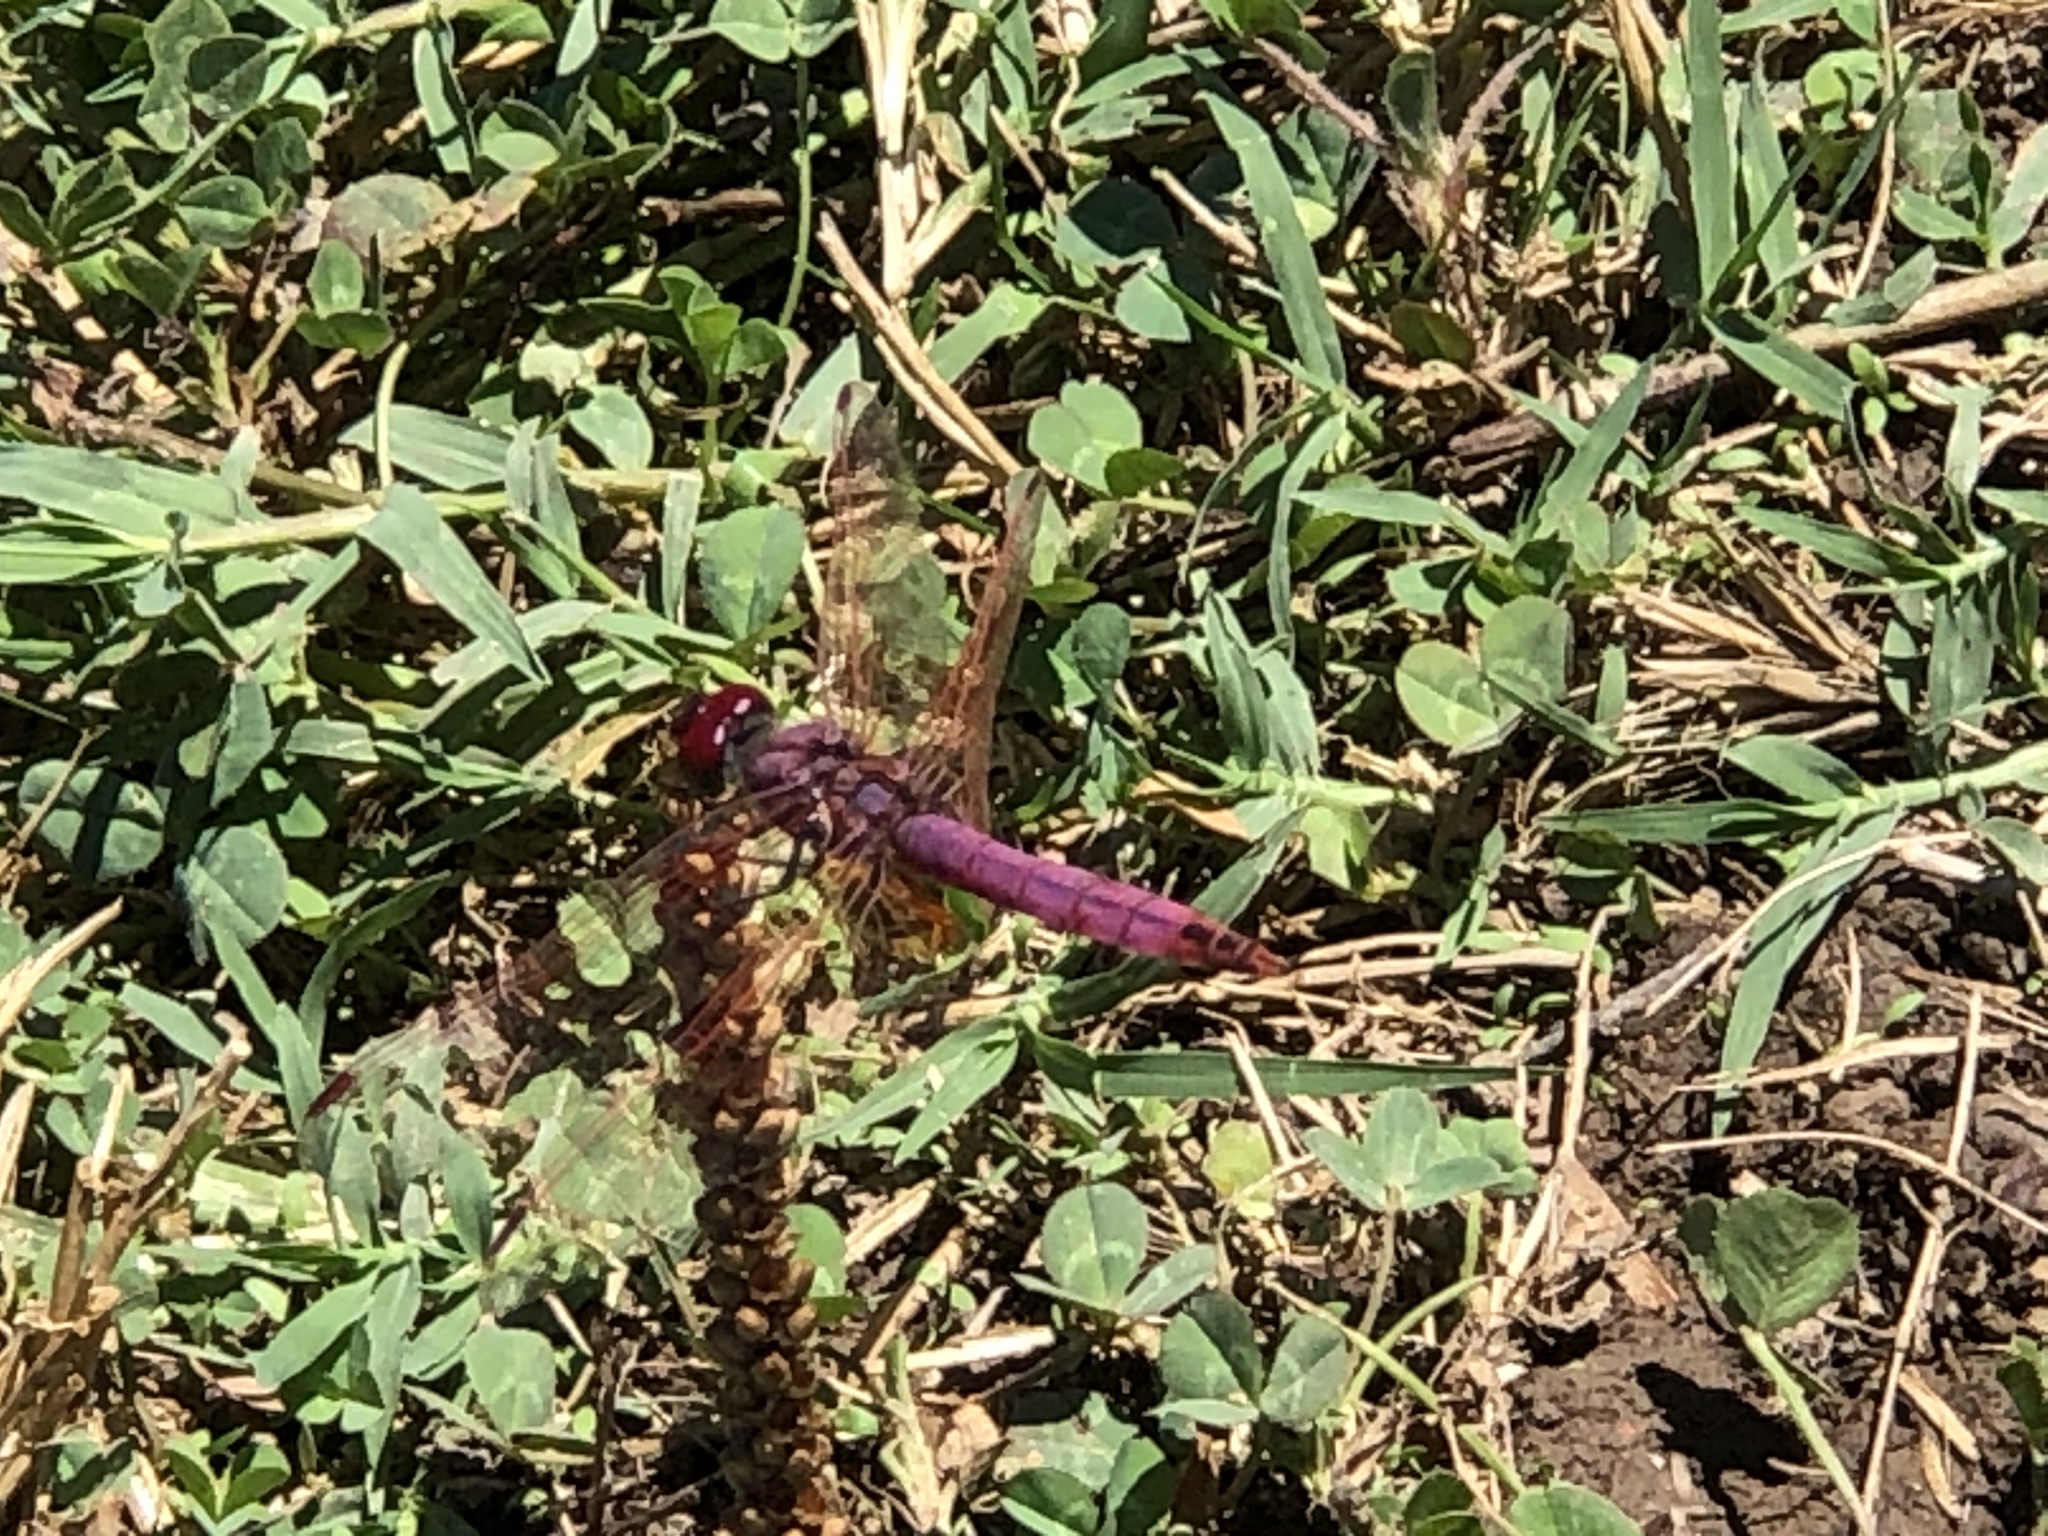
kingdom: Animalia
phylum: Arthropoda
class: Insecta
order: Odonata
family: Libellulidae
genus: Trithemis
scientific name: Trithemis annulata
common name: Violet dropwing
